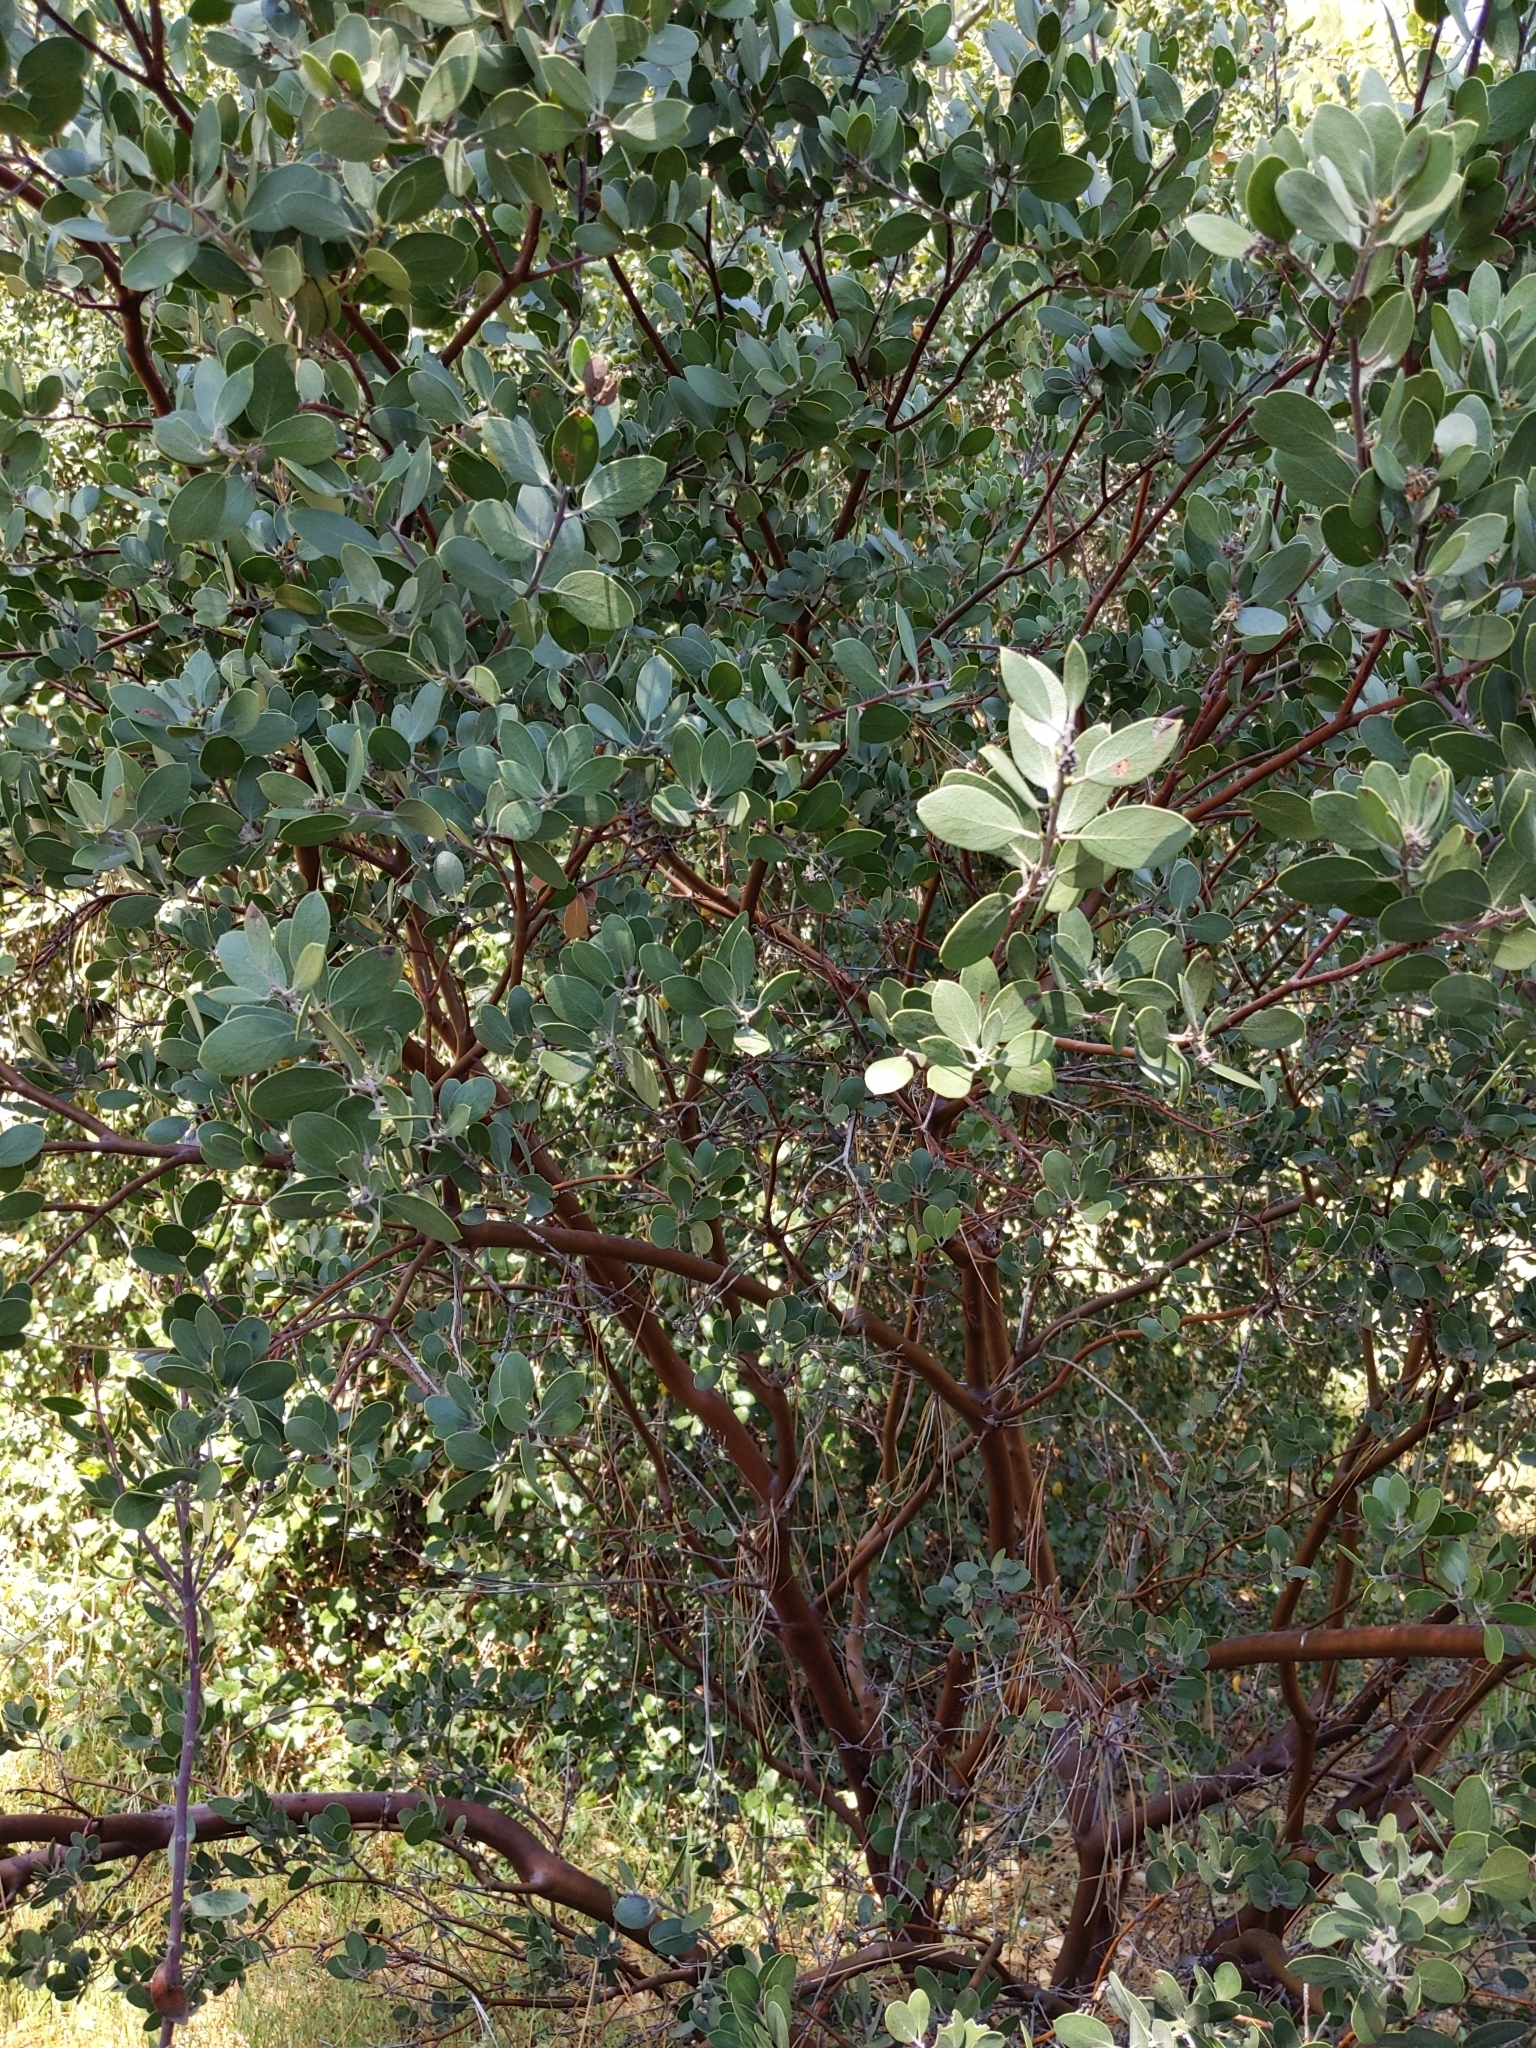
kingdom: Plantae
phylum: Tracheophyta
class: Magnoliopsida
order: Ericales
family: Ericaceae
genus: Arctostaphylos
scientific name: Arctostaphylos pungens
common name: Mexican manzanita
